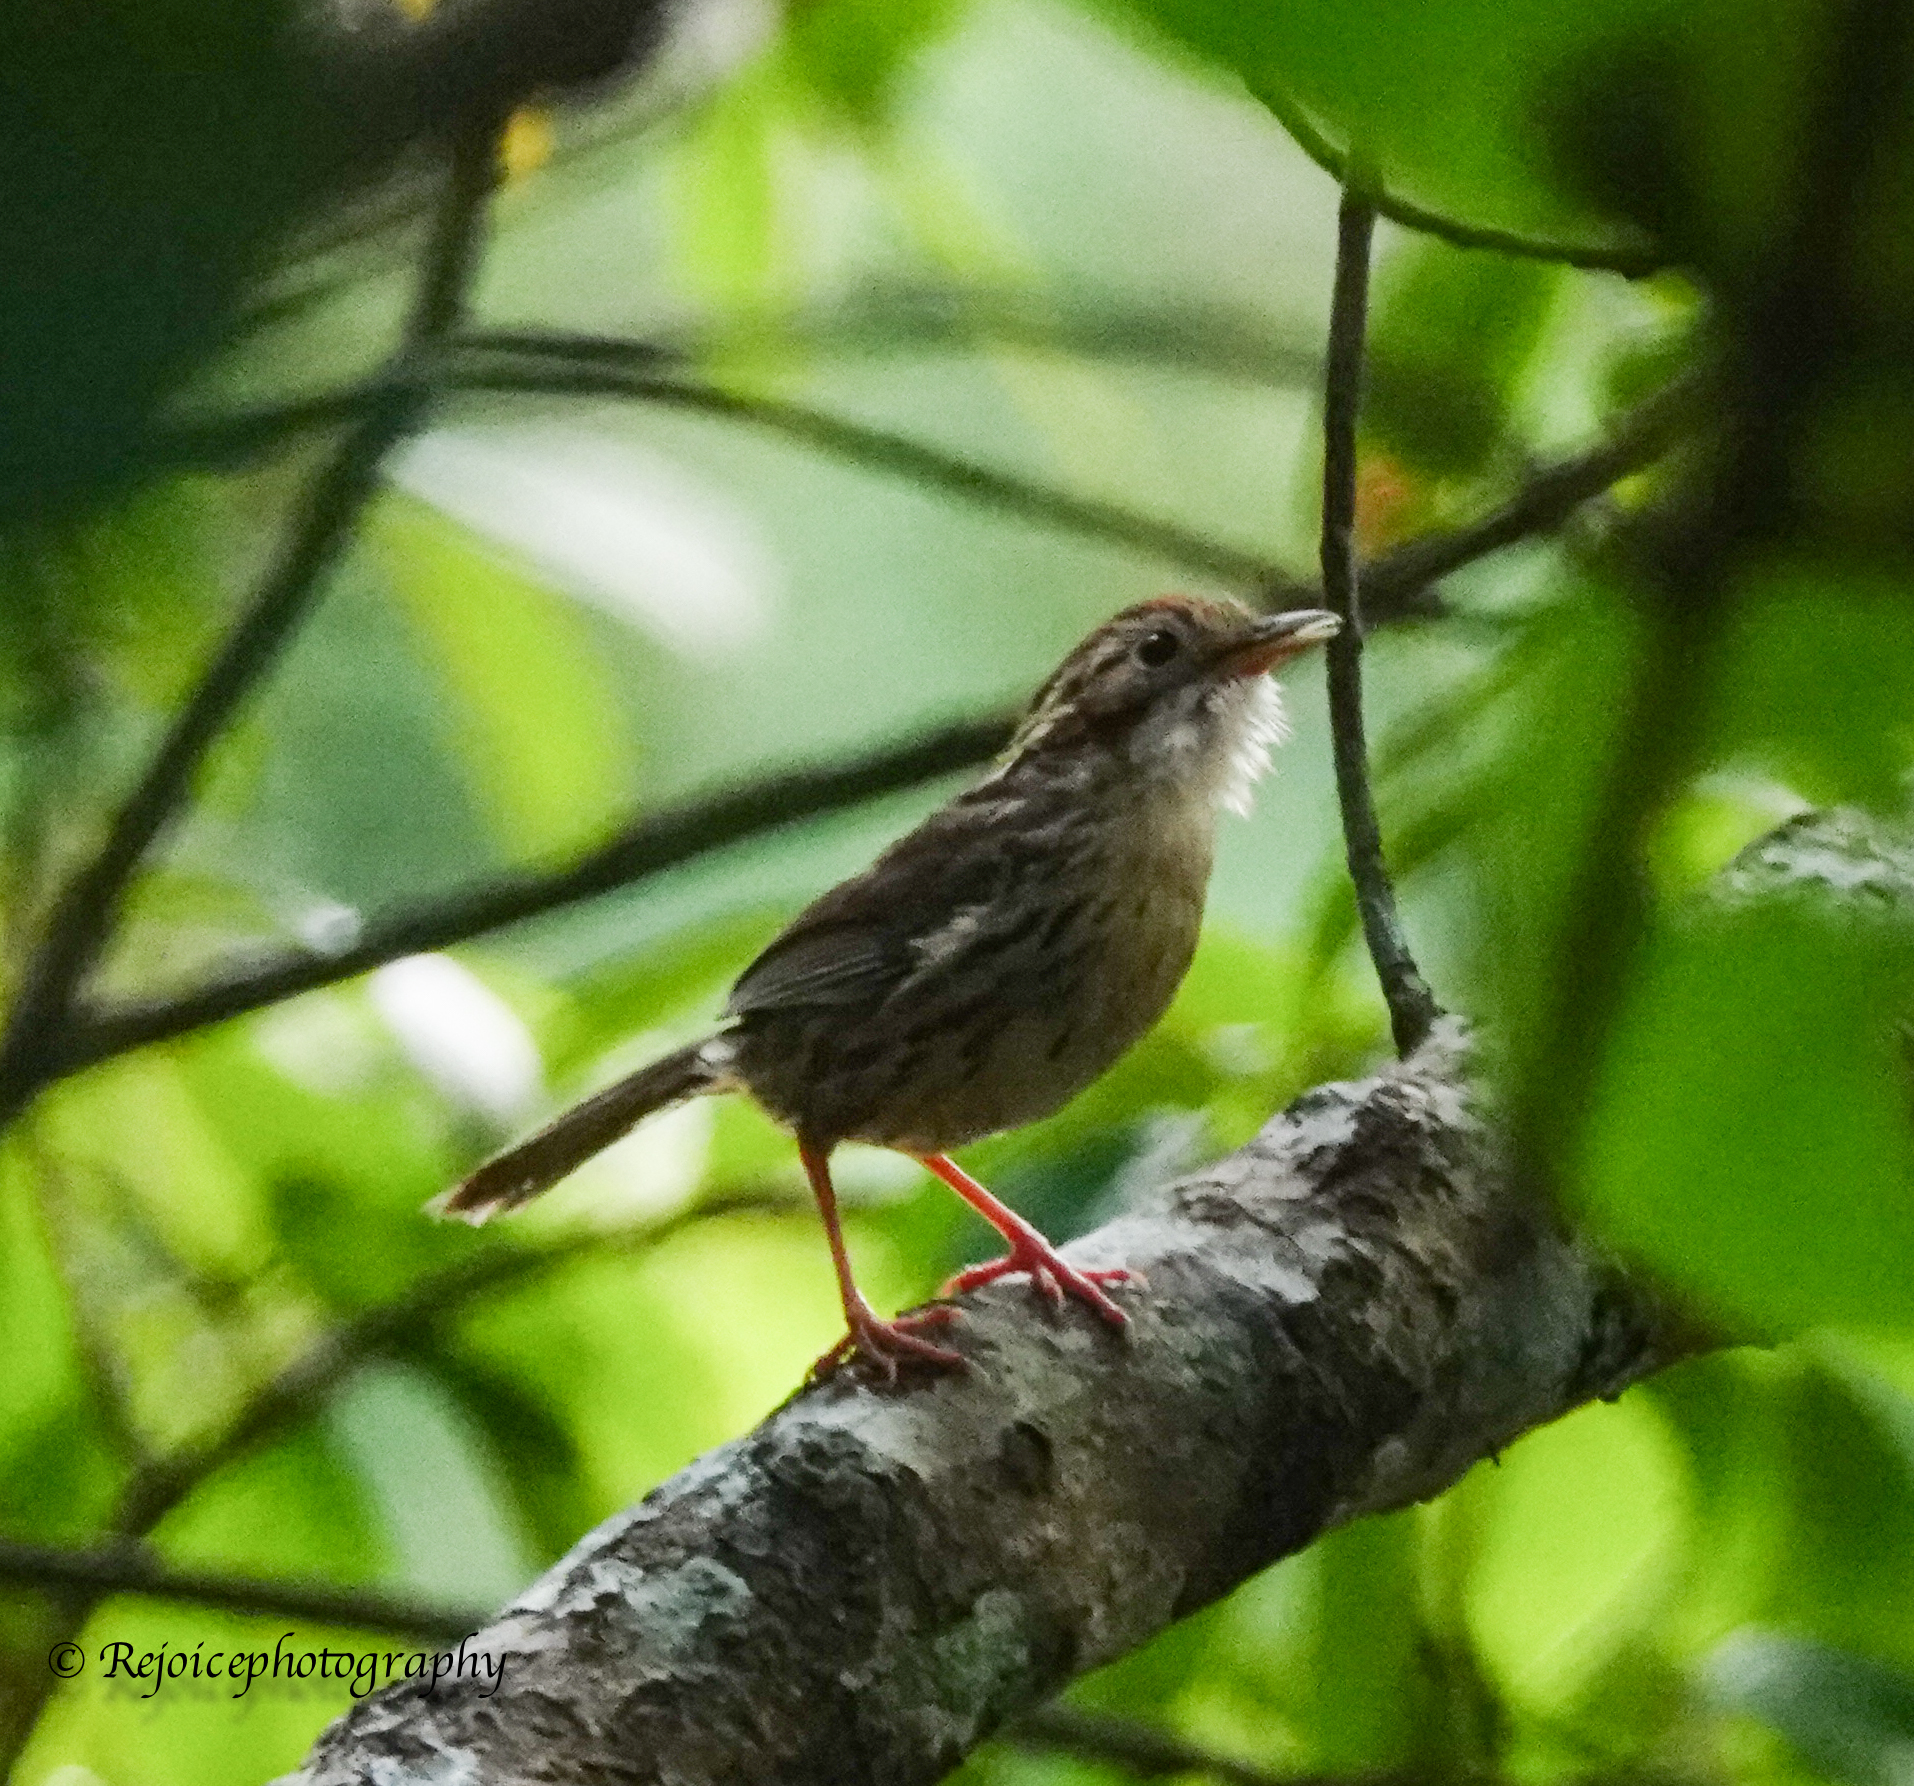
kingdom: Animalia
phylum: Chordata
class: Aves
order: Passeriformes
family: Pellorneidae
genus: Pellorneum
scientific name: Pellorneum ruficeps
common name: Puff-throated babbler
